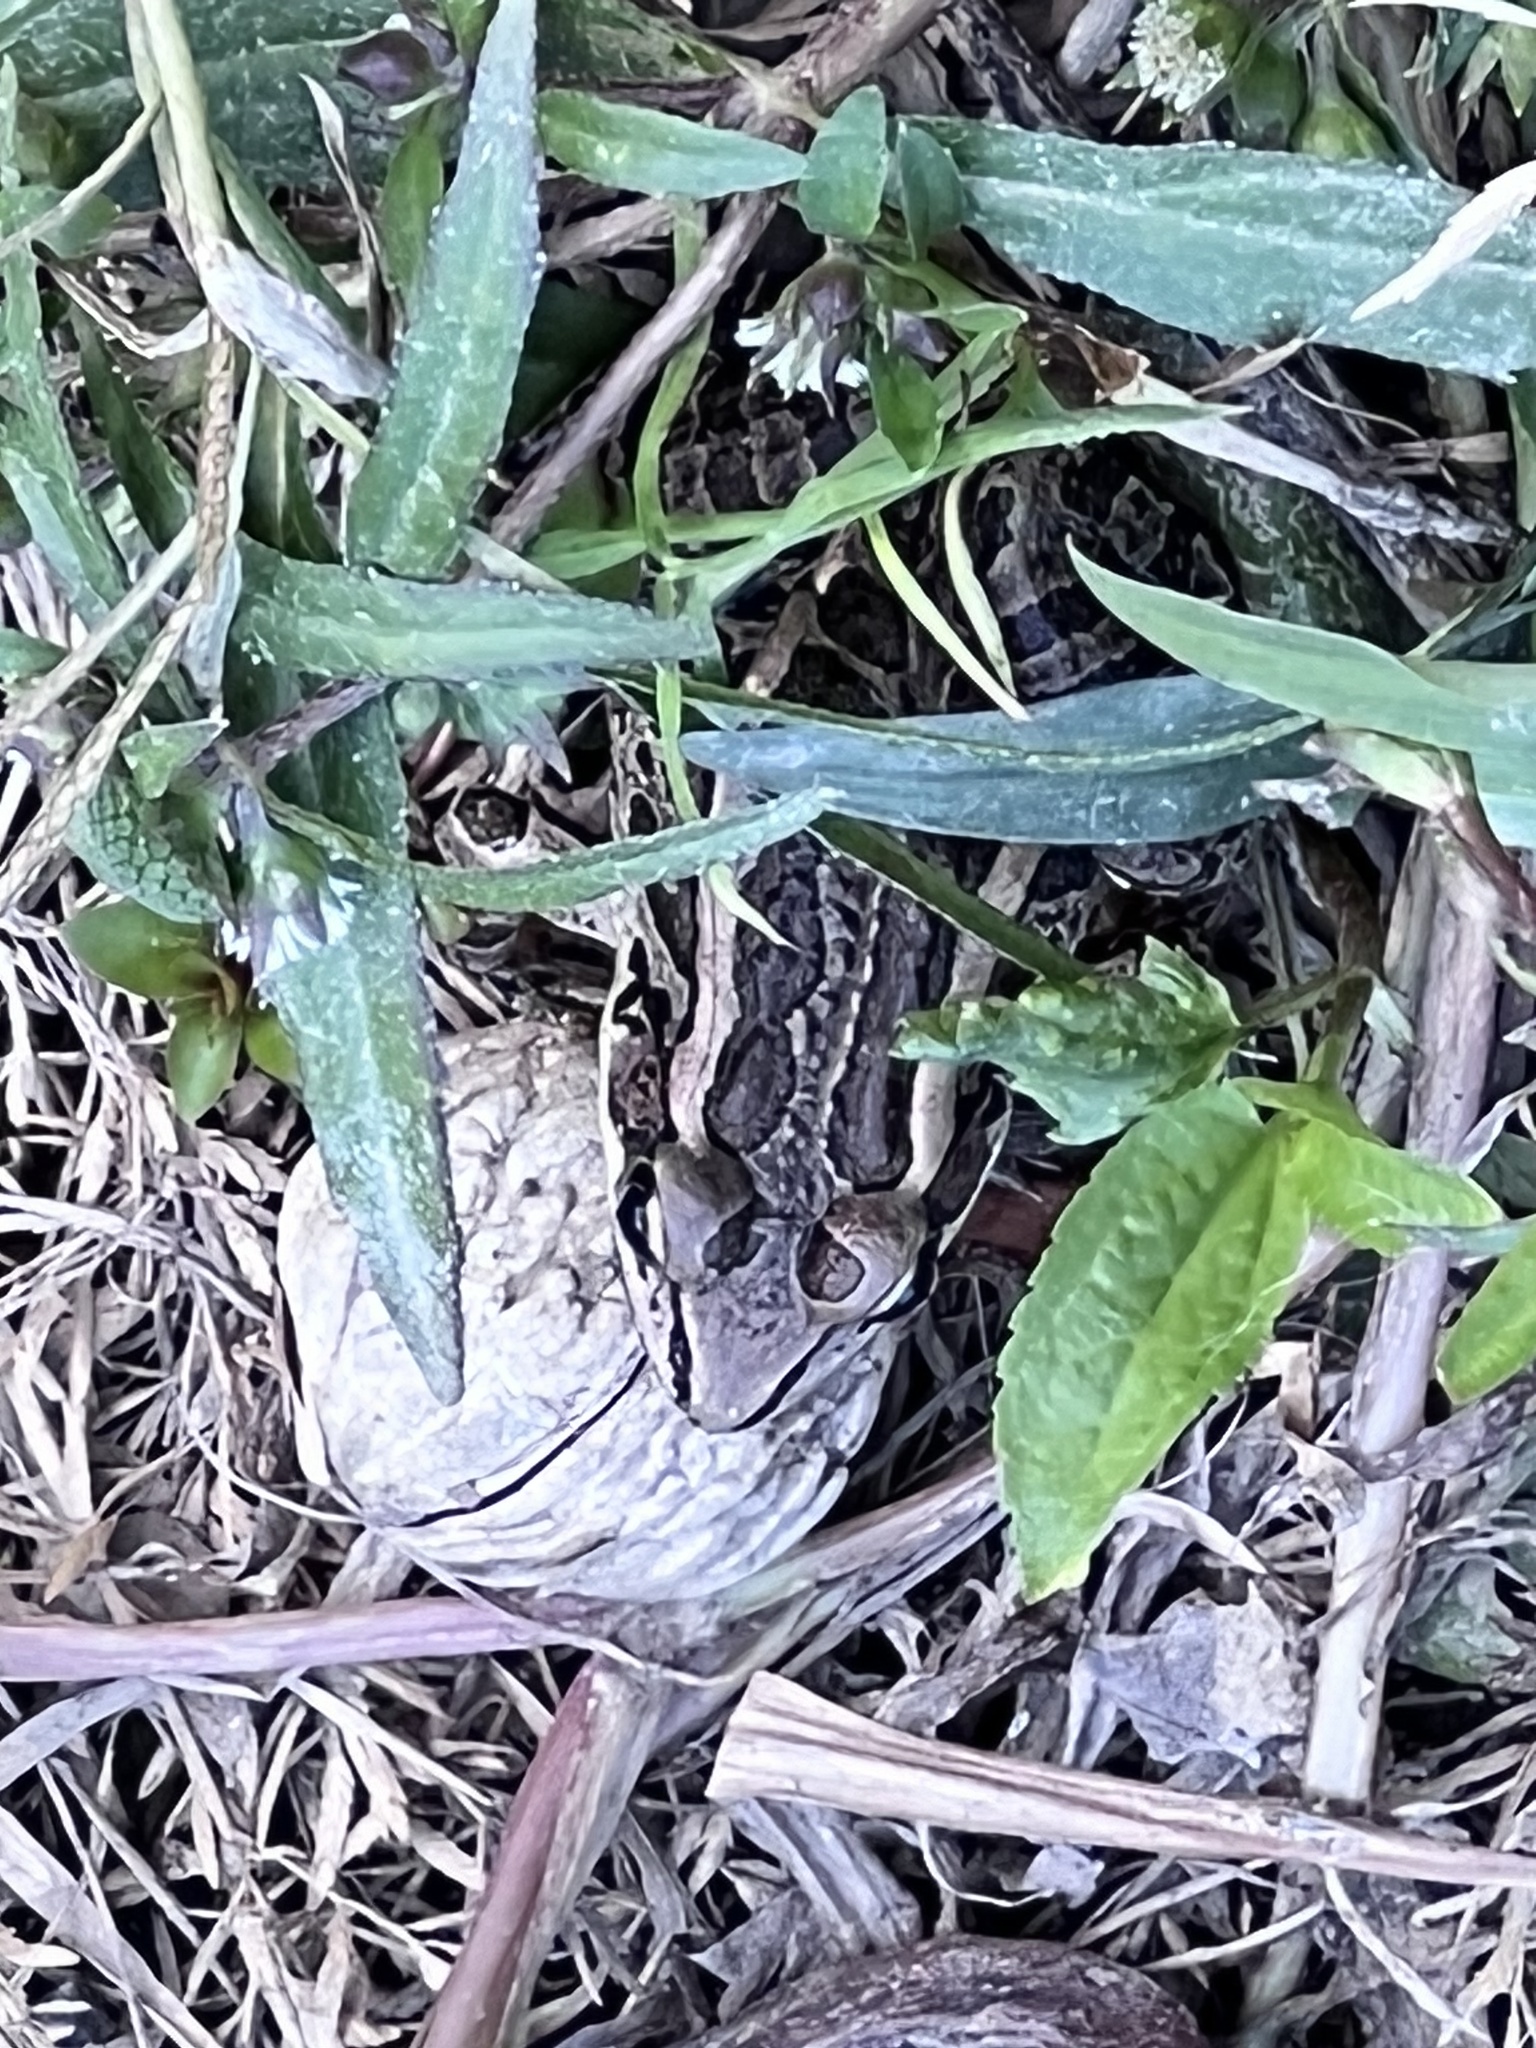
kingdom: Animalia
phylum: Chordata
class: Amphibia
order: Anura
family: Ranidae
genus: Lithobates
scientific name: Lithobates palustris
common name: Pickerel frog
